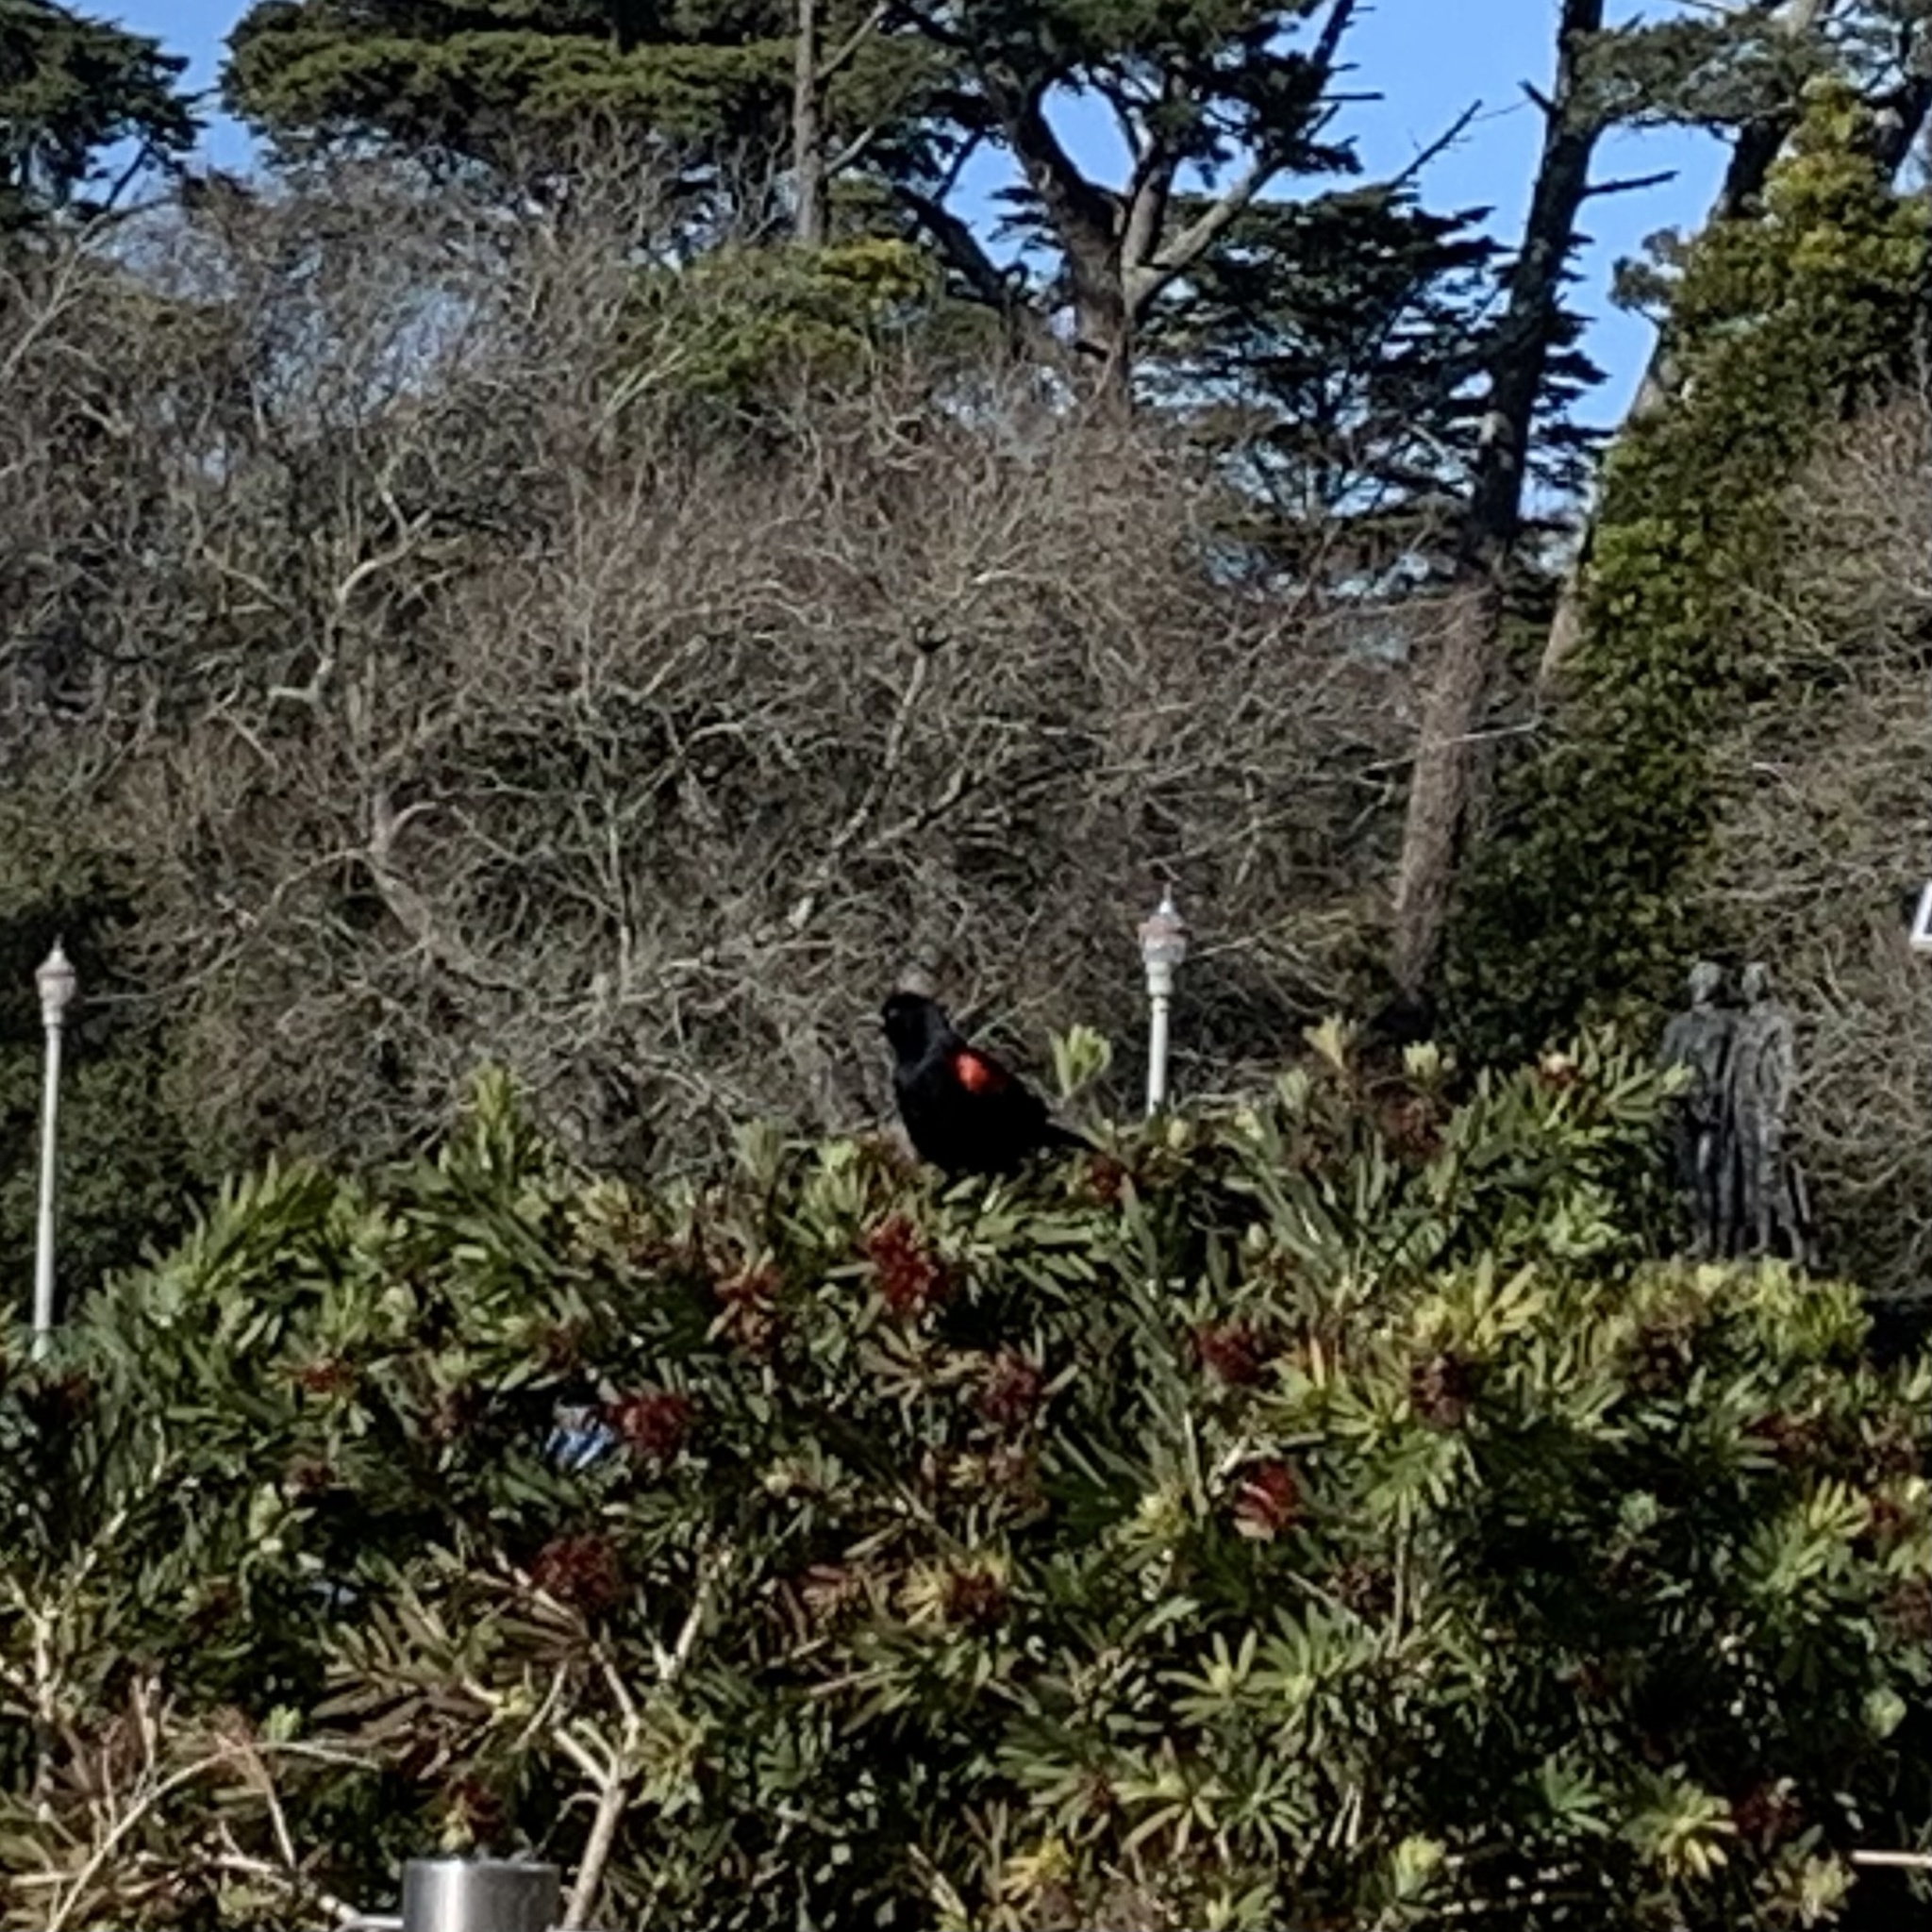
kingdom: Animalia
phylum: Chordata
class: Aves
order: Passeriformes
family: Icteridae
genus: Agelaius
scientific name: Agelaius phoeniceus
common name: Red-winged blackbird
